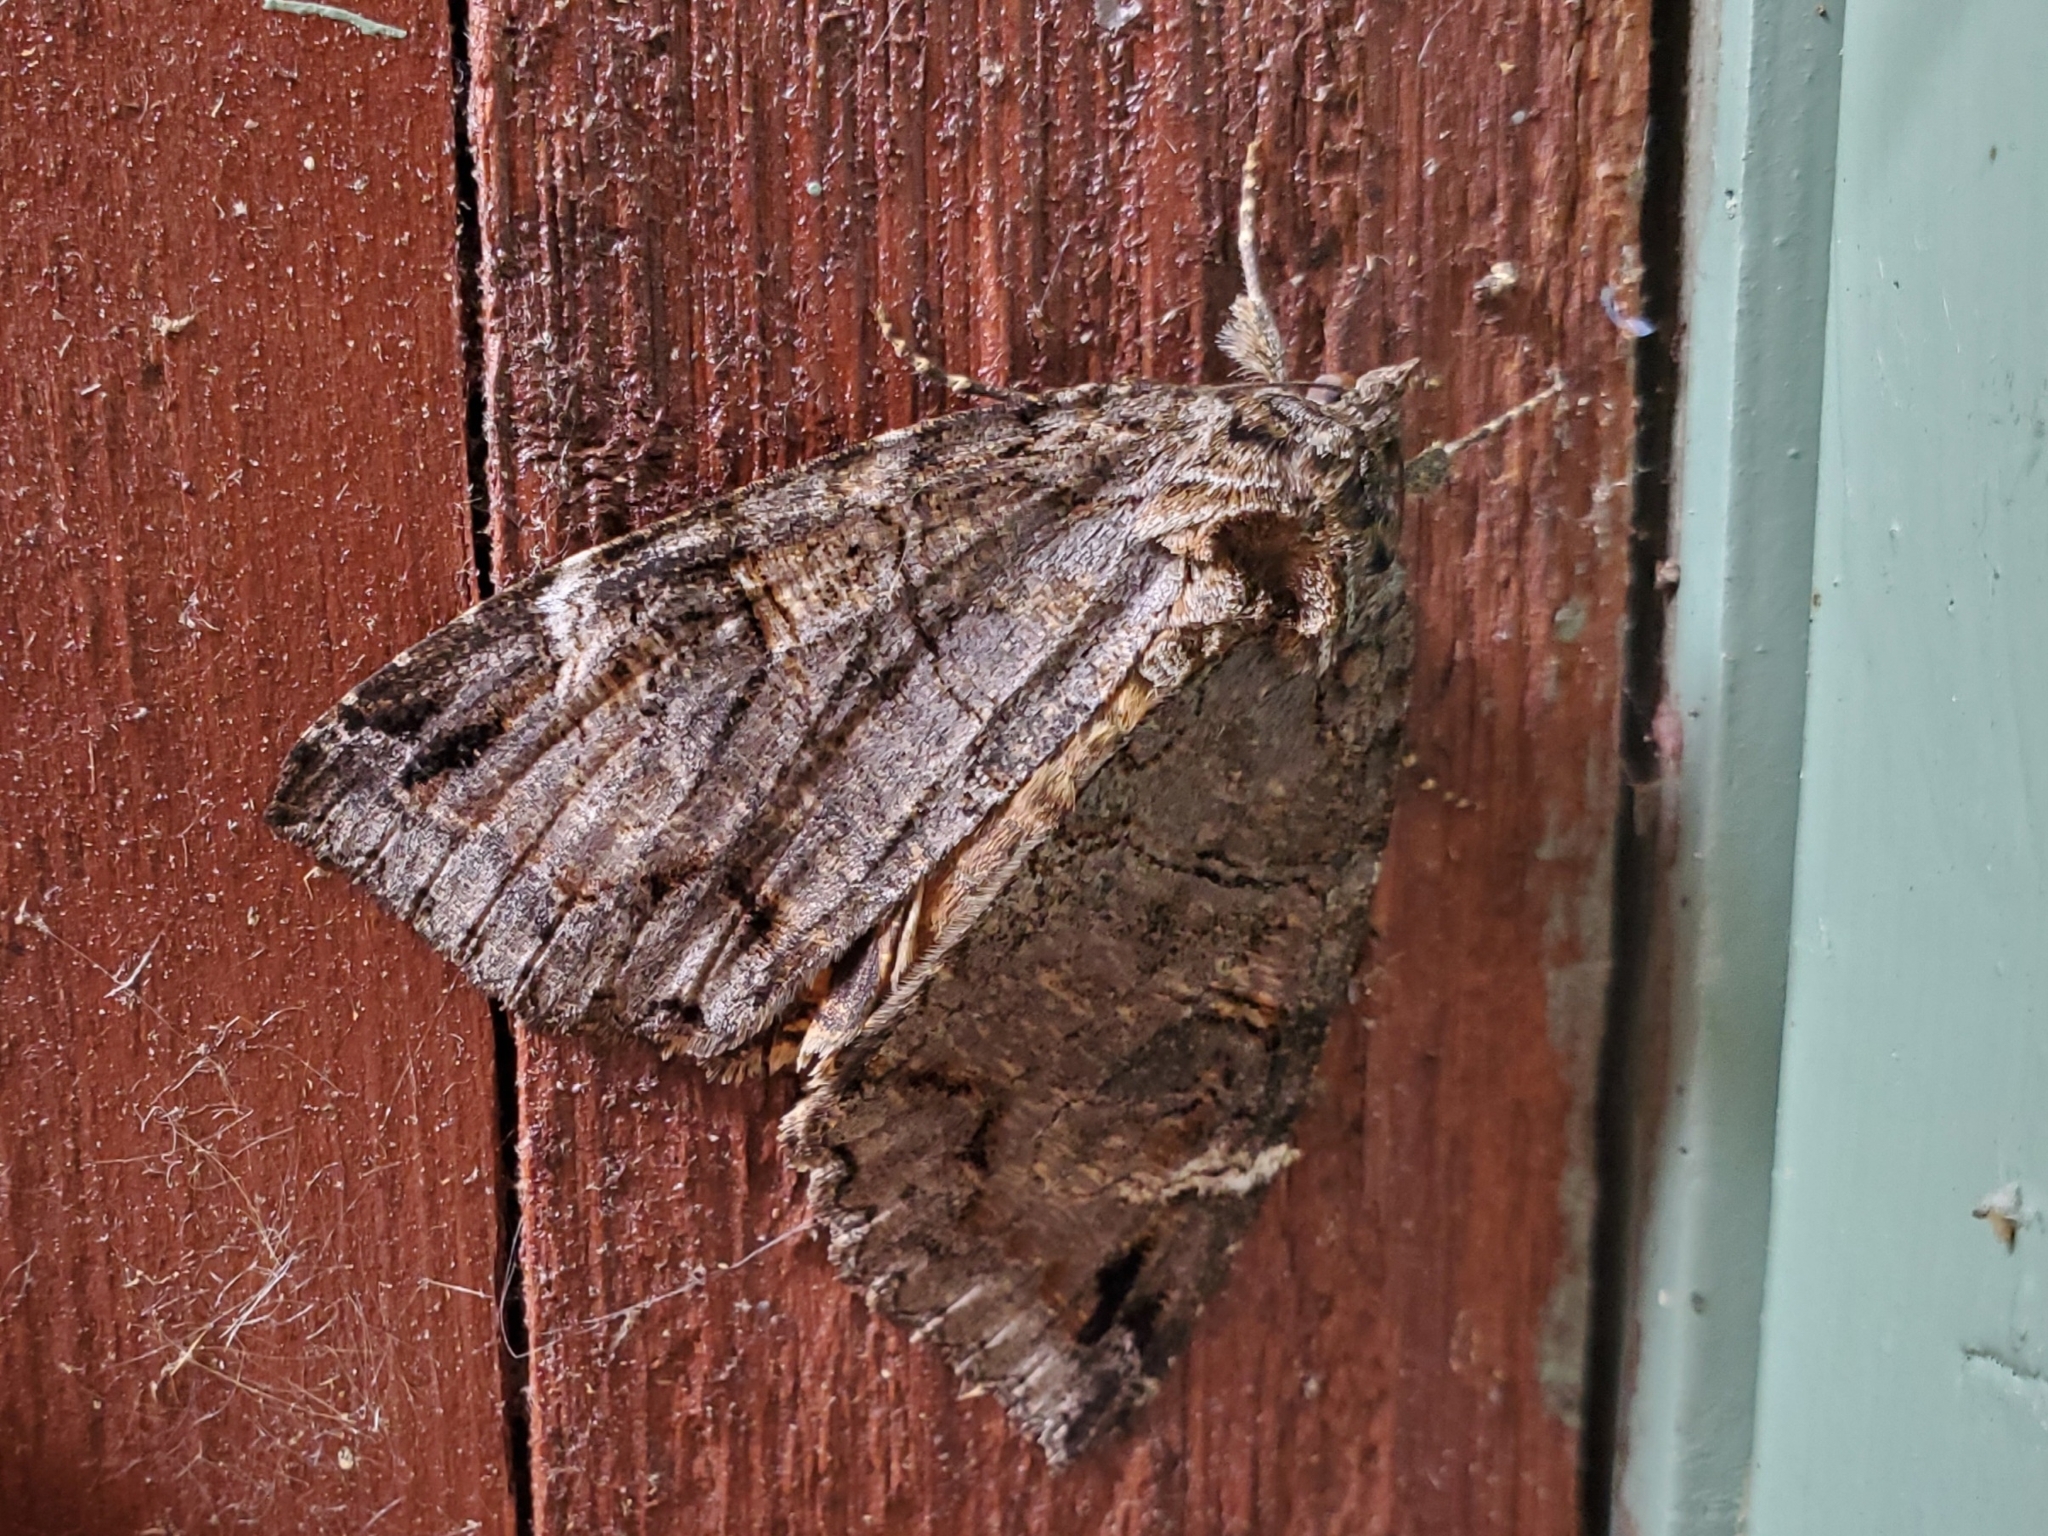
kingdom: Animalia
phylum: Arthropoda
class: Insecta
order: Lepidoptera
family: Erebidae
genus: Euparthenos
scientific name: Euparthenos nubilis
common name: Locust underwing
